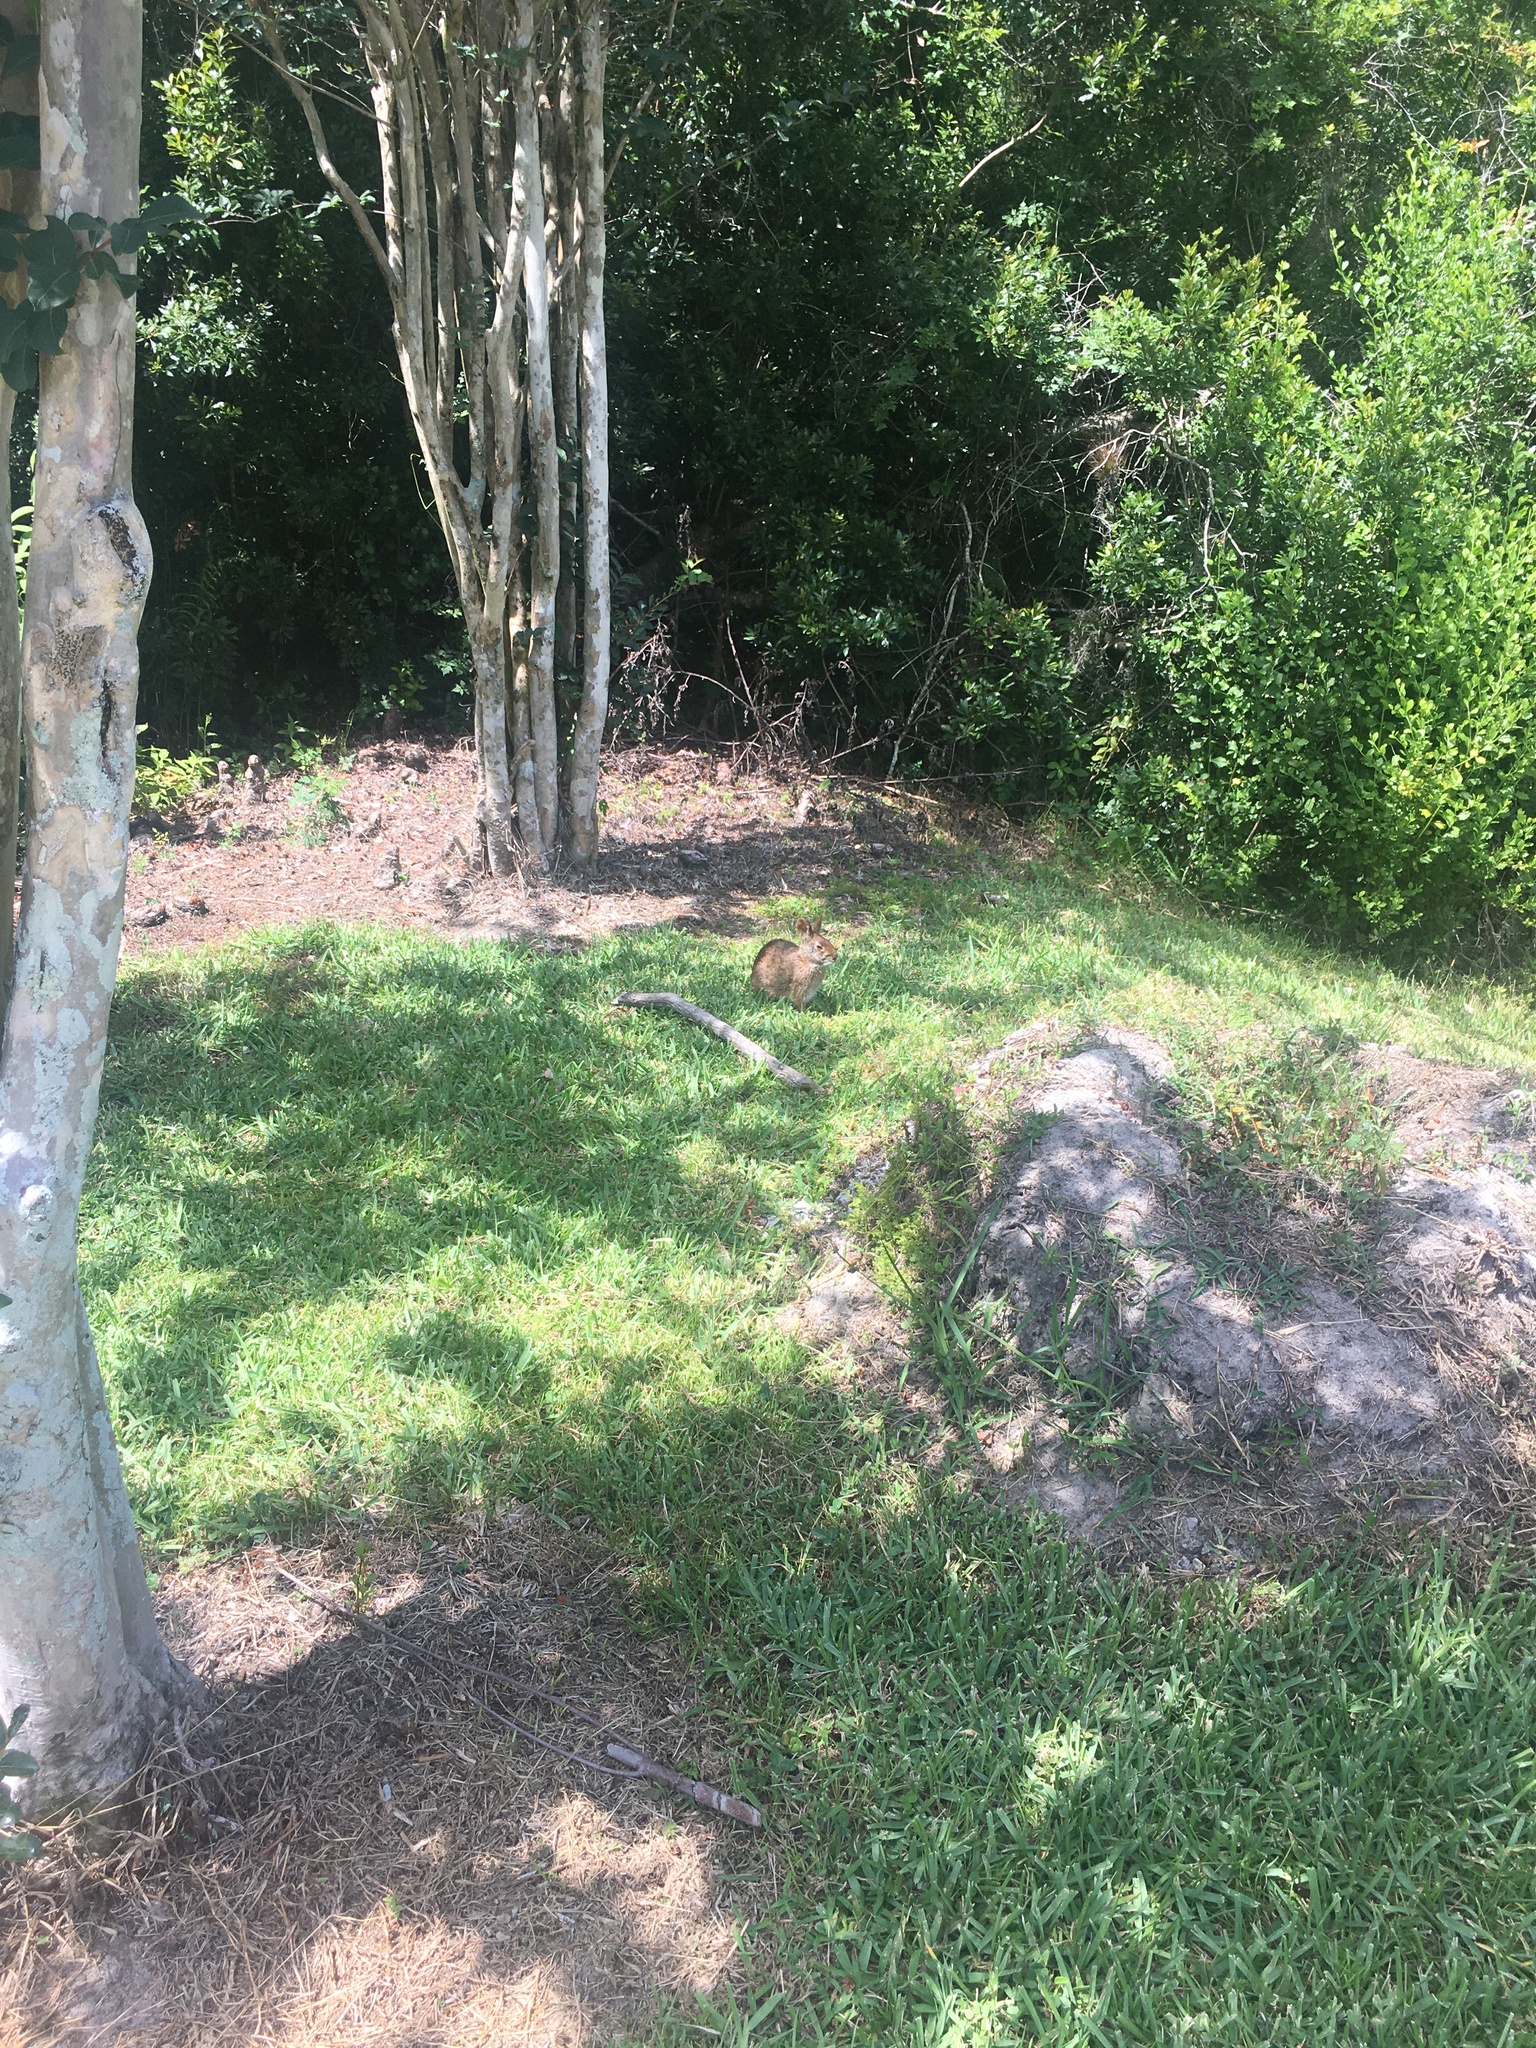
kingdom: Animalia
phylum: Chordata
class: Mammalia
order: Lagomorpha
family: Leporidae
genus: Sylvilagus
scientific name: Sylvilagus palustris
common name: Marsh rabbit
